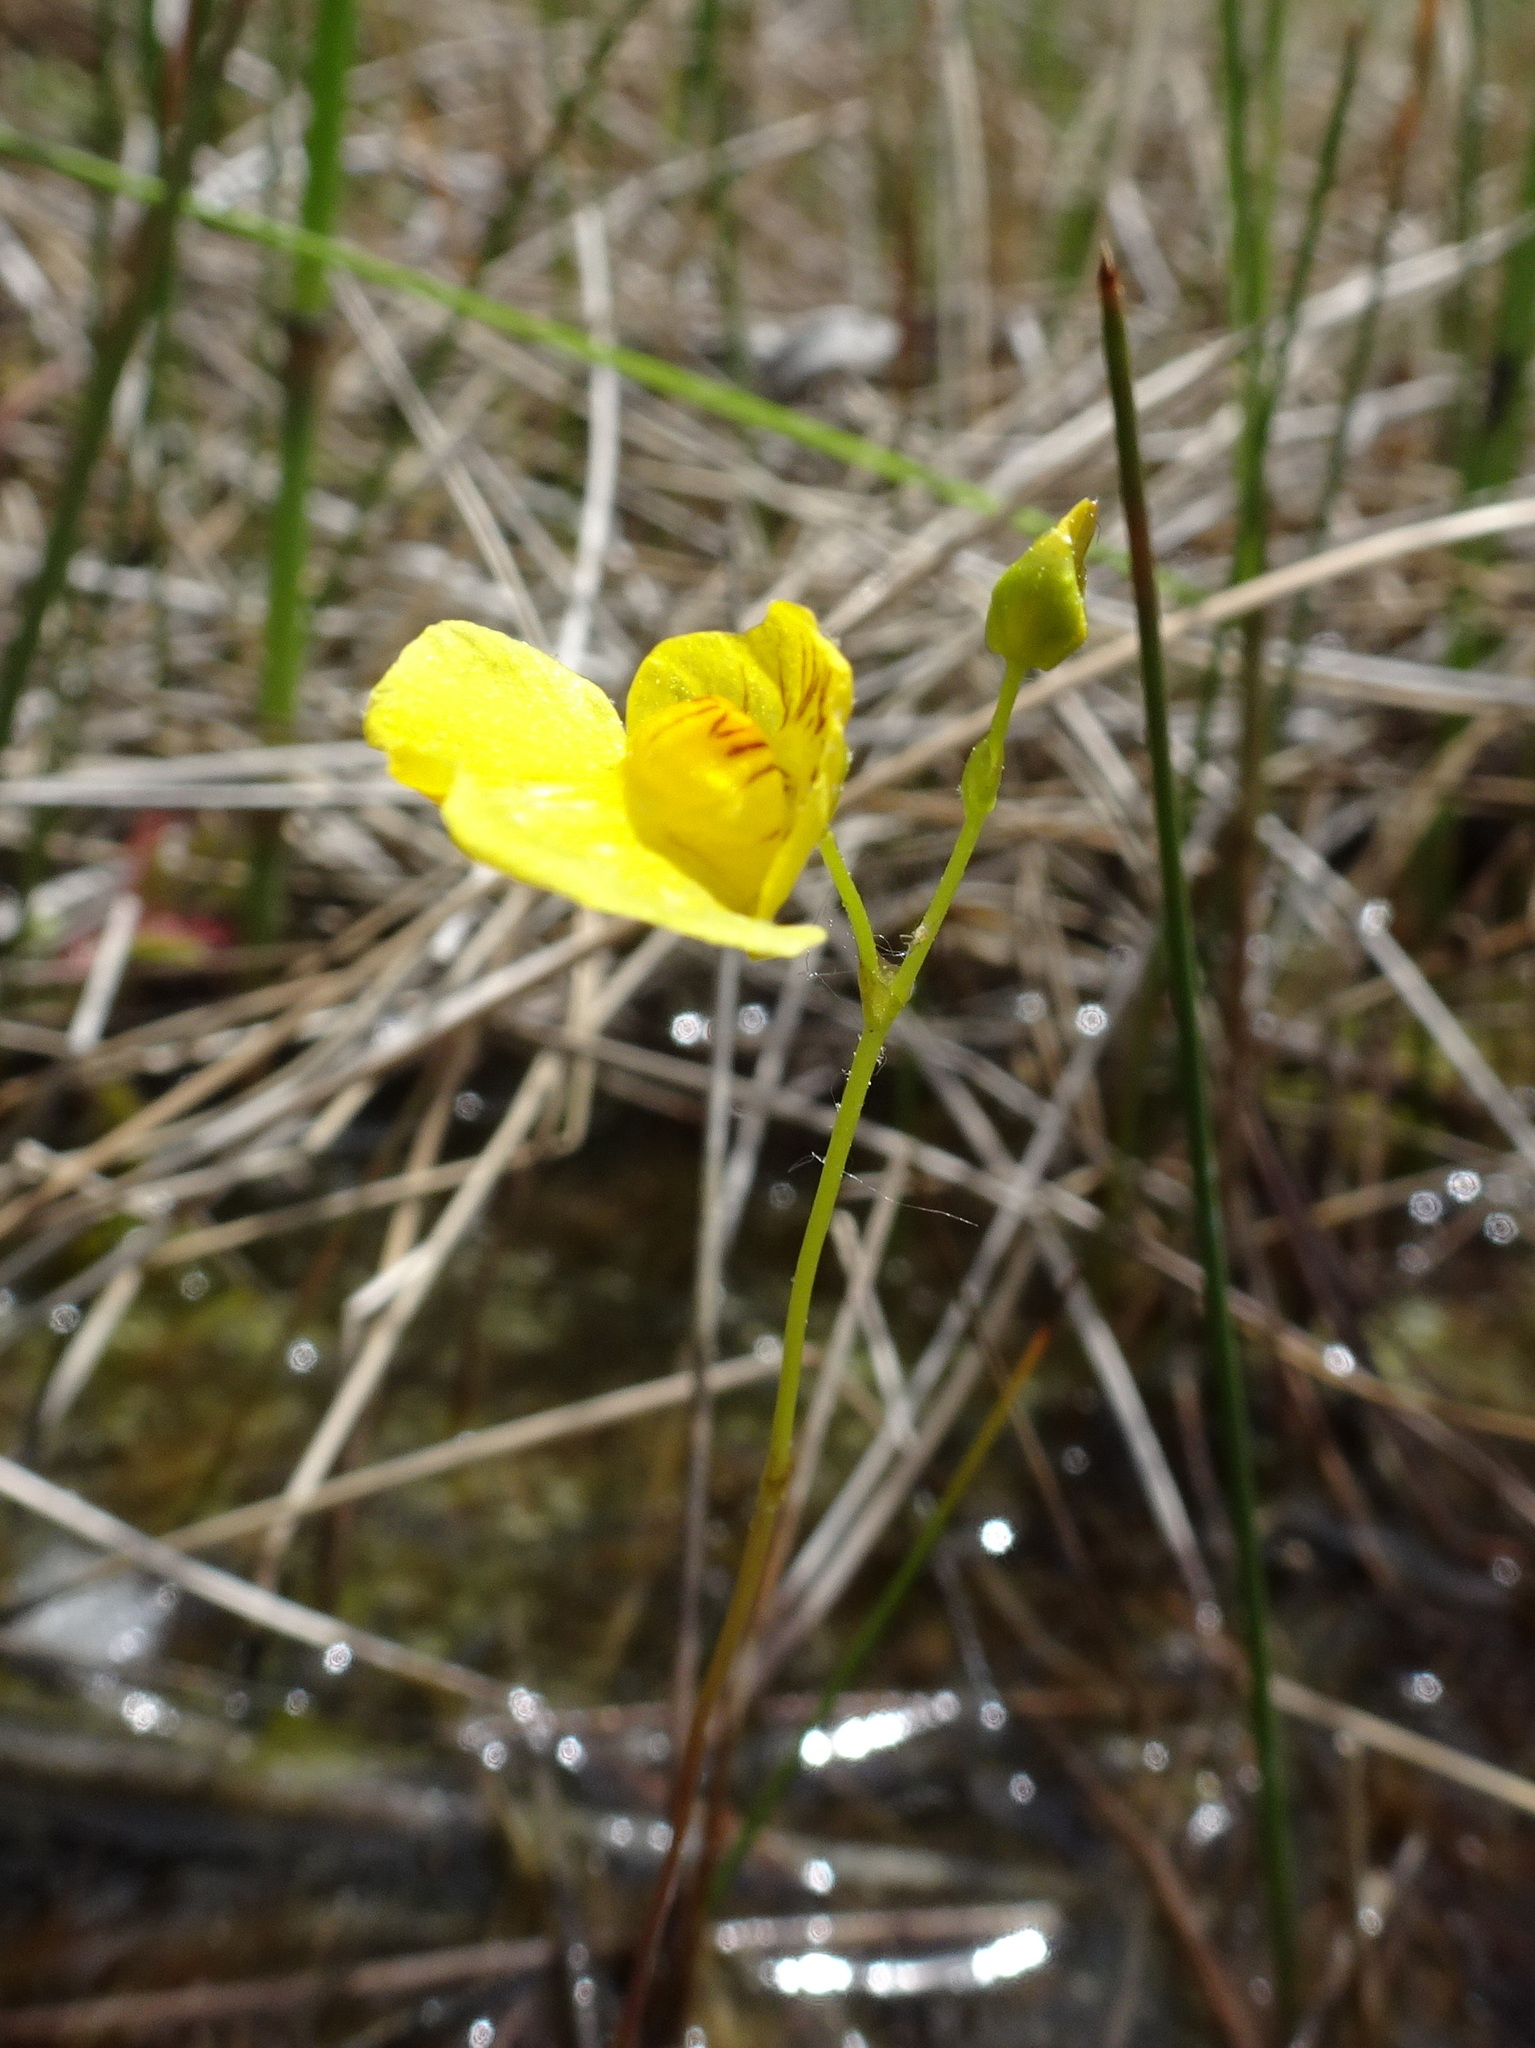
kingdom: Plantae
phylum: Tracheophyta
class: Magnoliopsida
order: Lamiales
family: Lentibulariaceae
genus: Utricularia
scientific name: Utricularia intermedia
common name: Intermediate bladderwort
